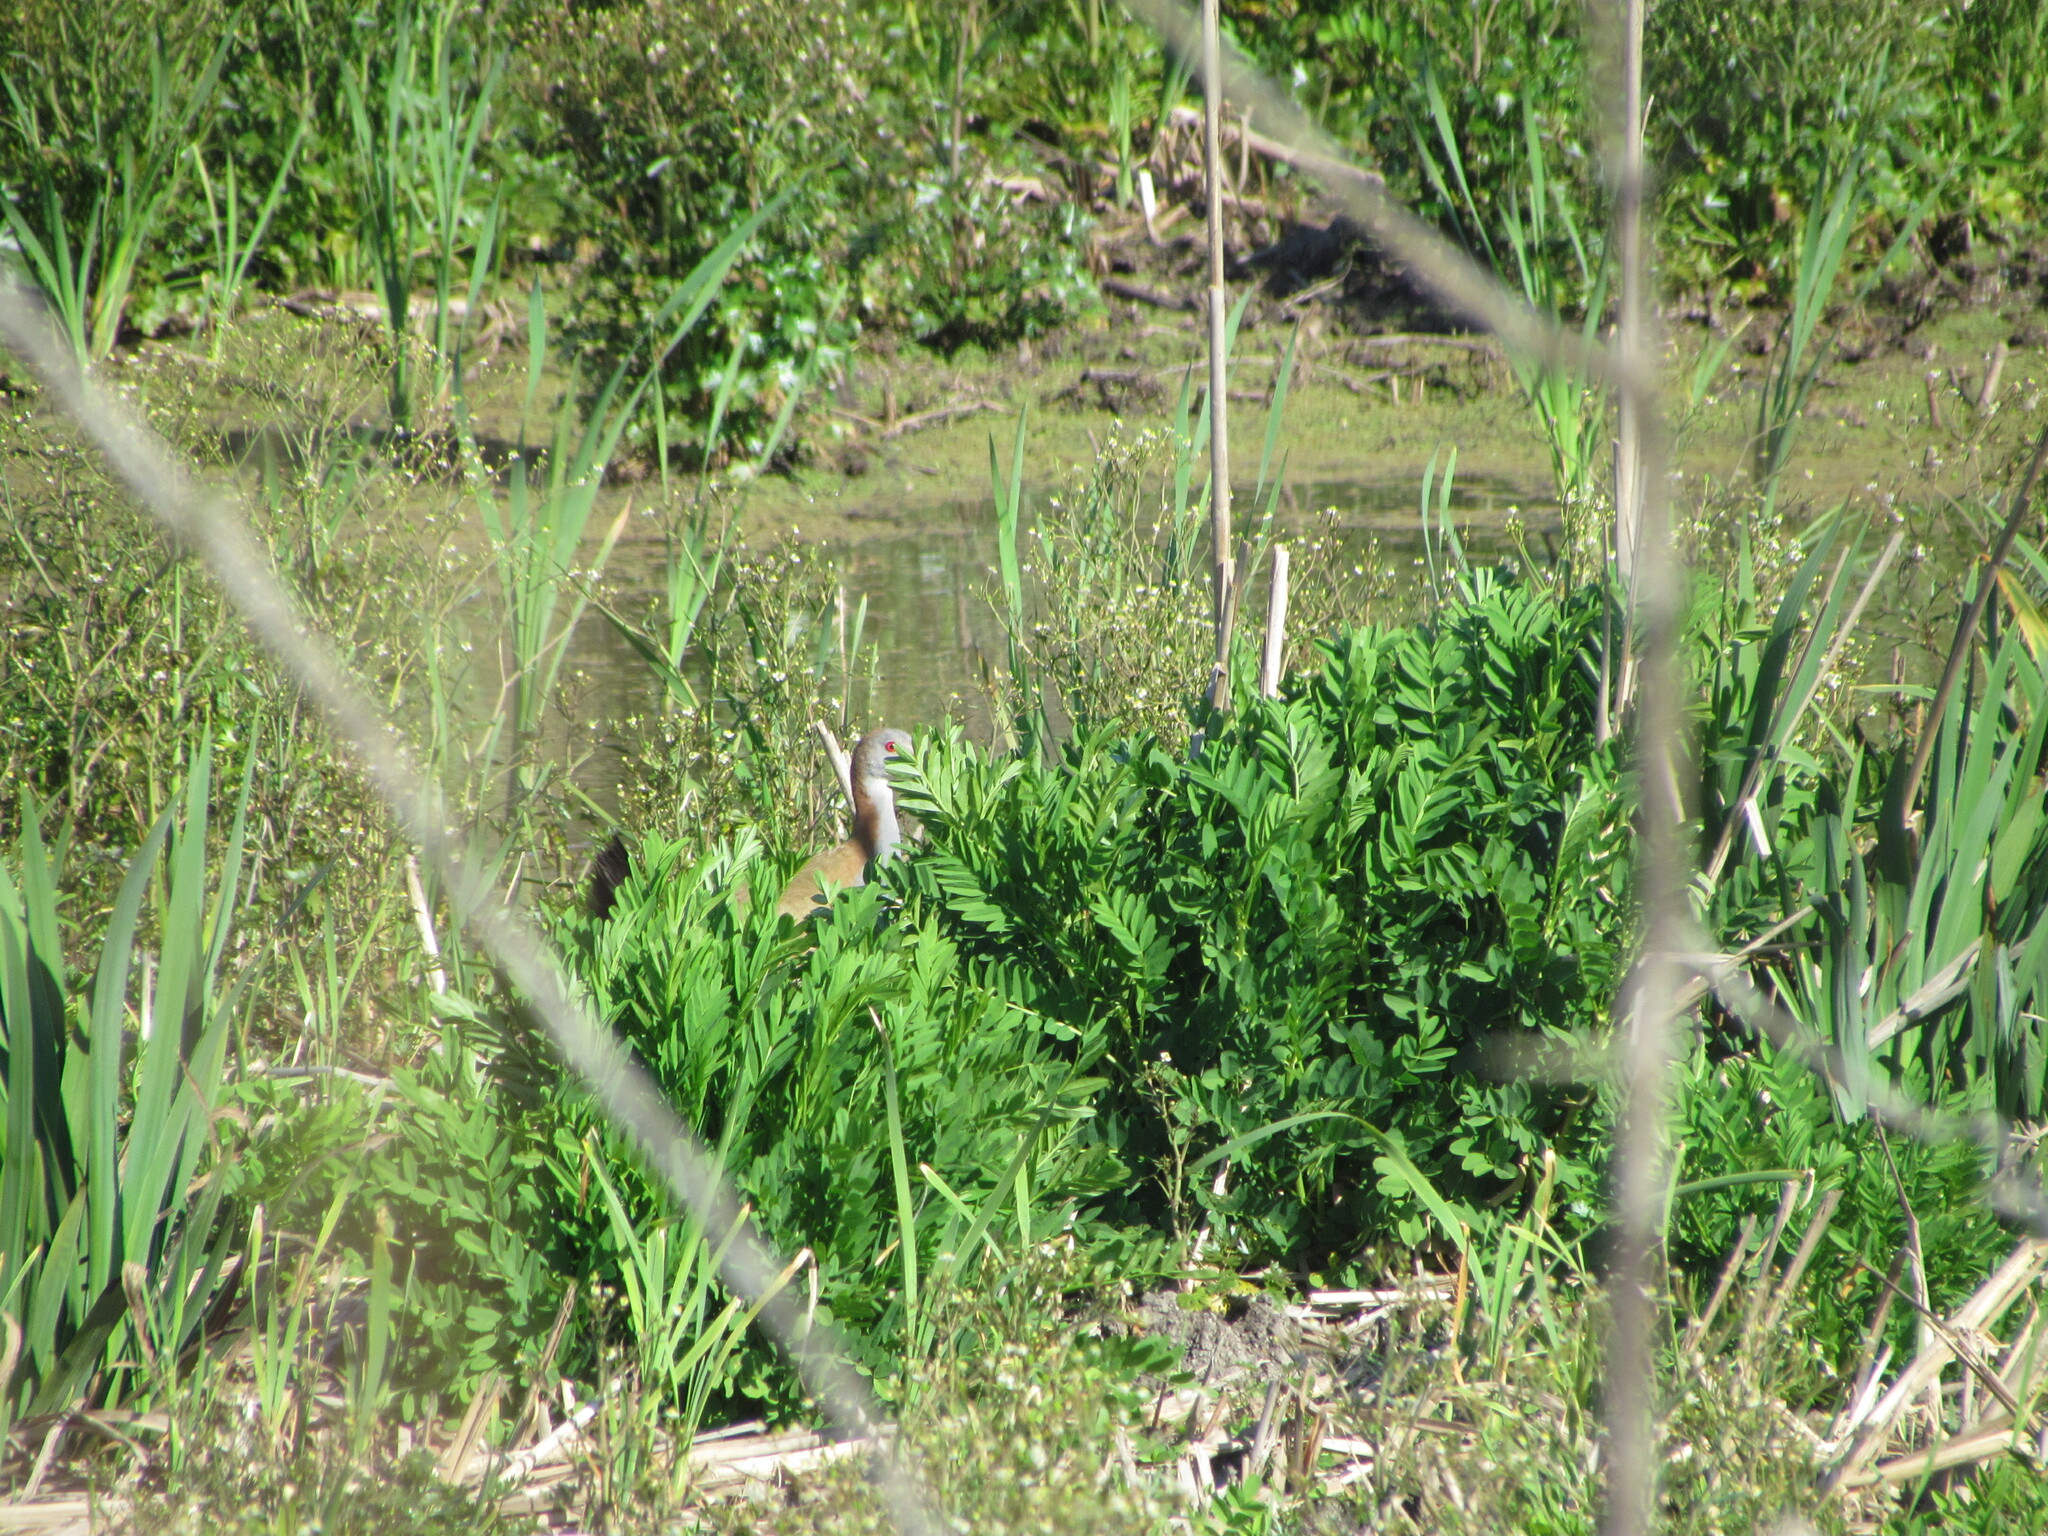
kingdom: Animalia
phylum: Chordata
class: Aves
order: Gruiformes
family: Rallidae
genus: Aramides
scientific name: Aramides ypecaha
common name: Giant wood rail
